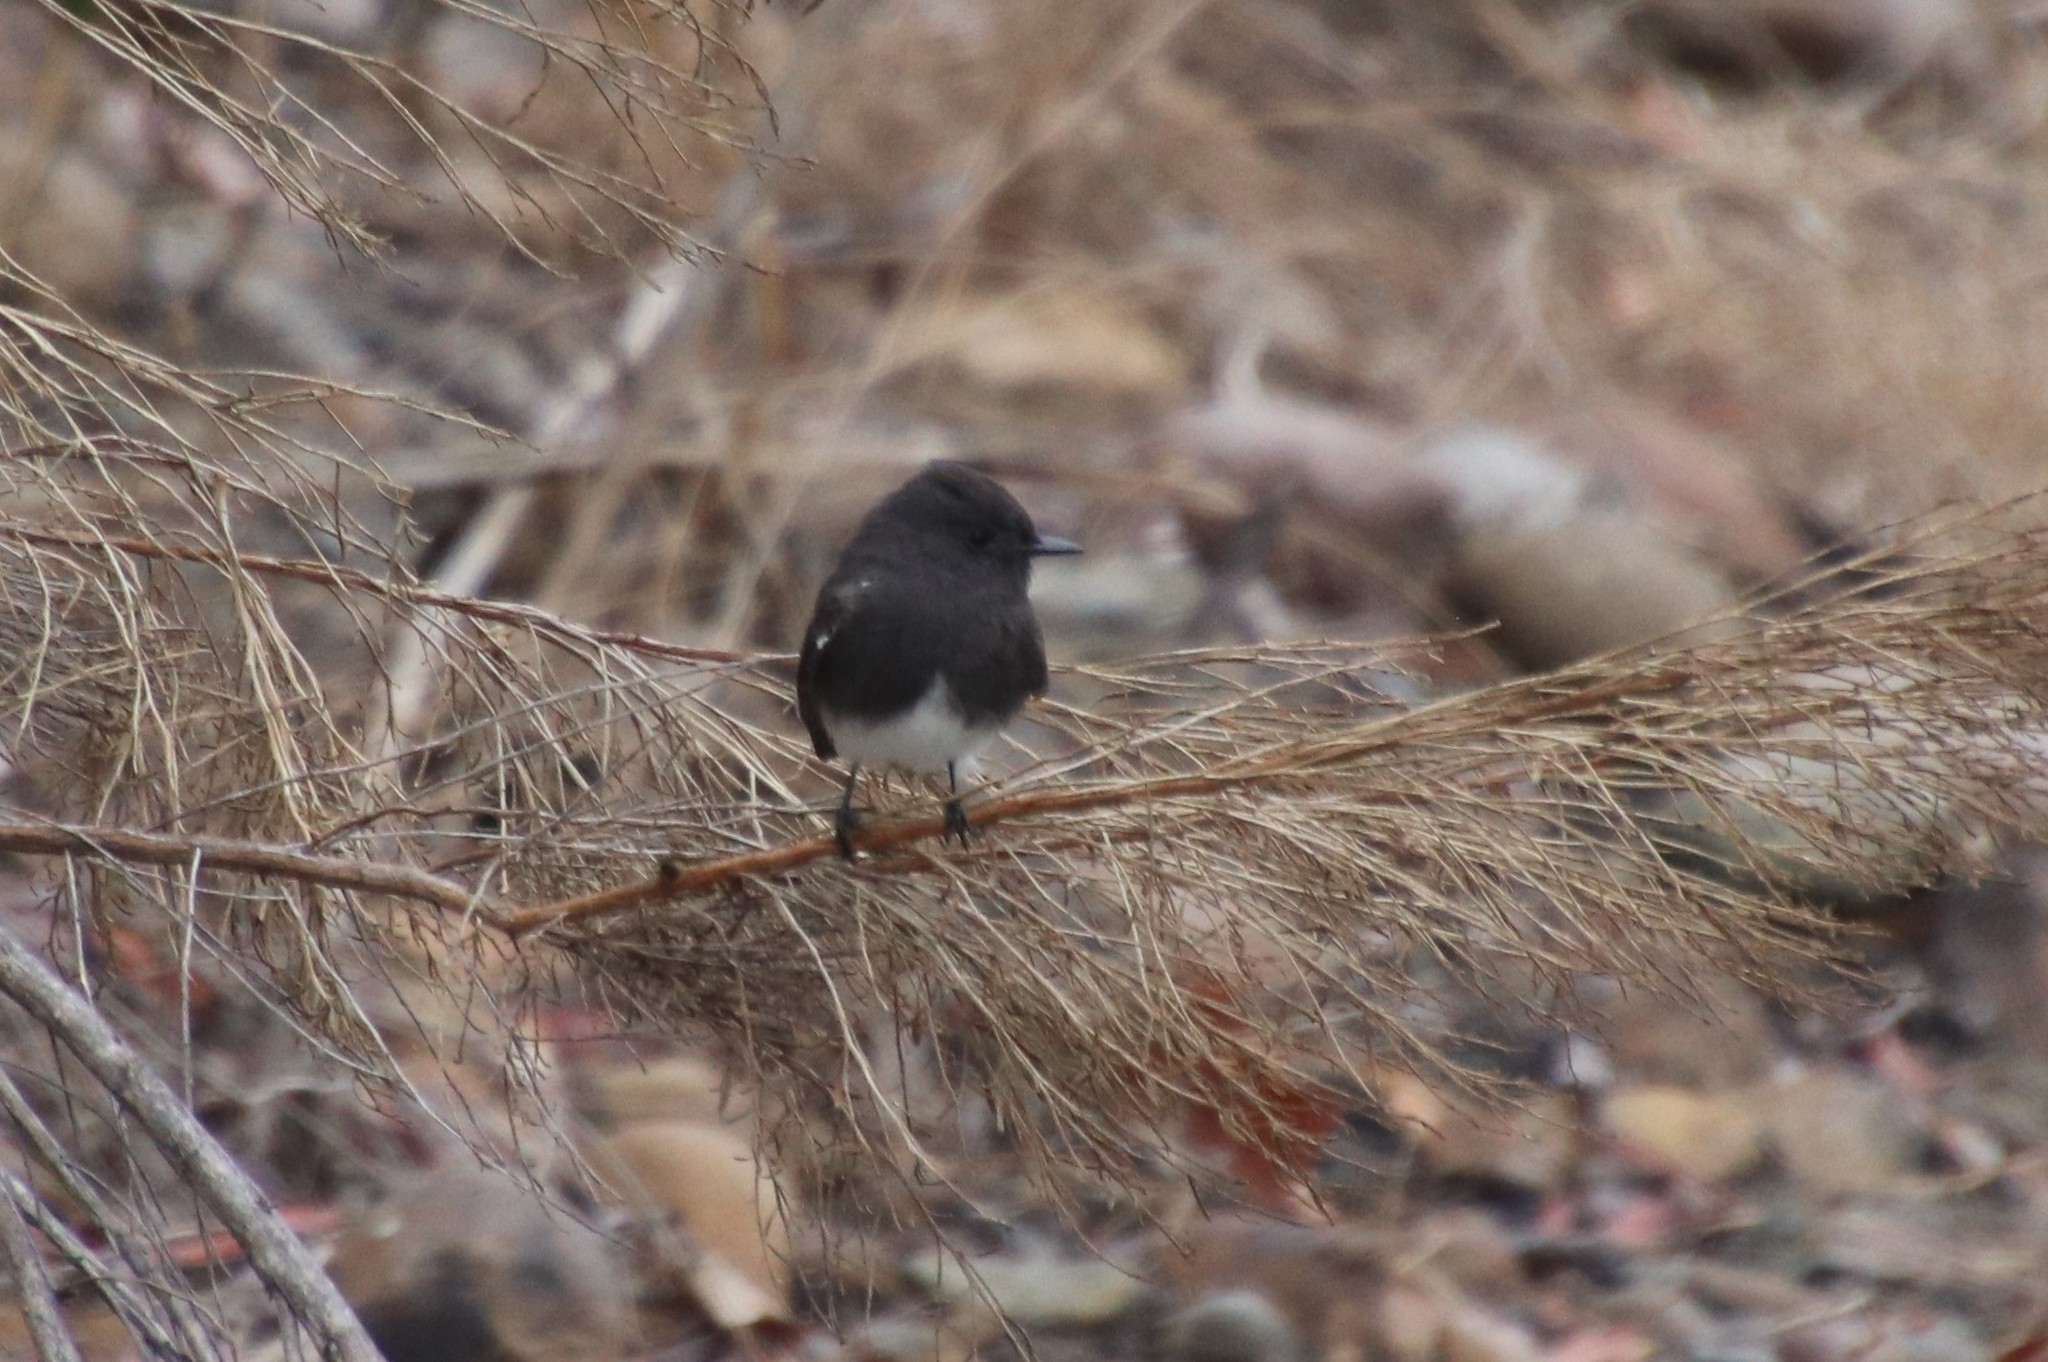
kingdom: Animalia
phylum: Chordata
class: Aves
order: Passeriformes
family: Tyrannidae
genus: Sayornis
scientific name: Sayornis nigricans
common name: Black phoebe
